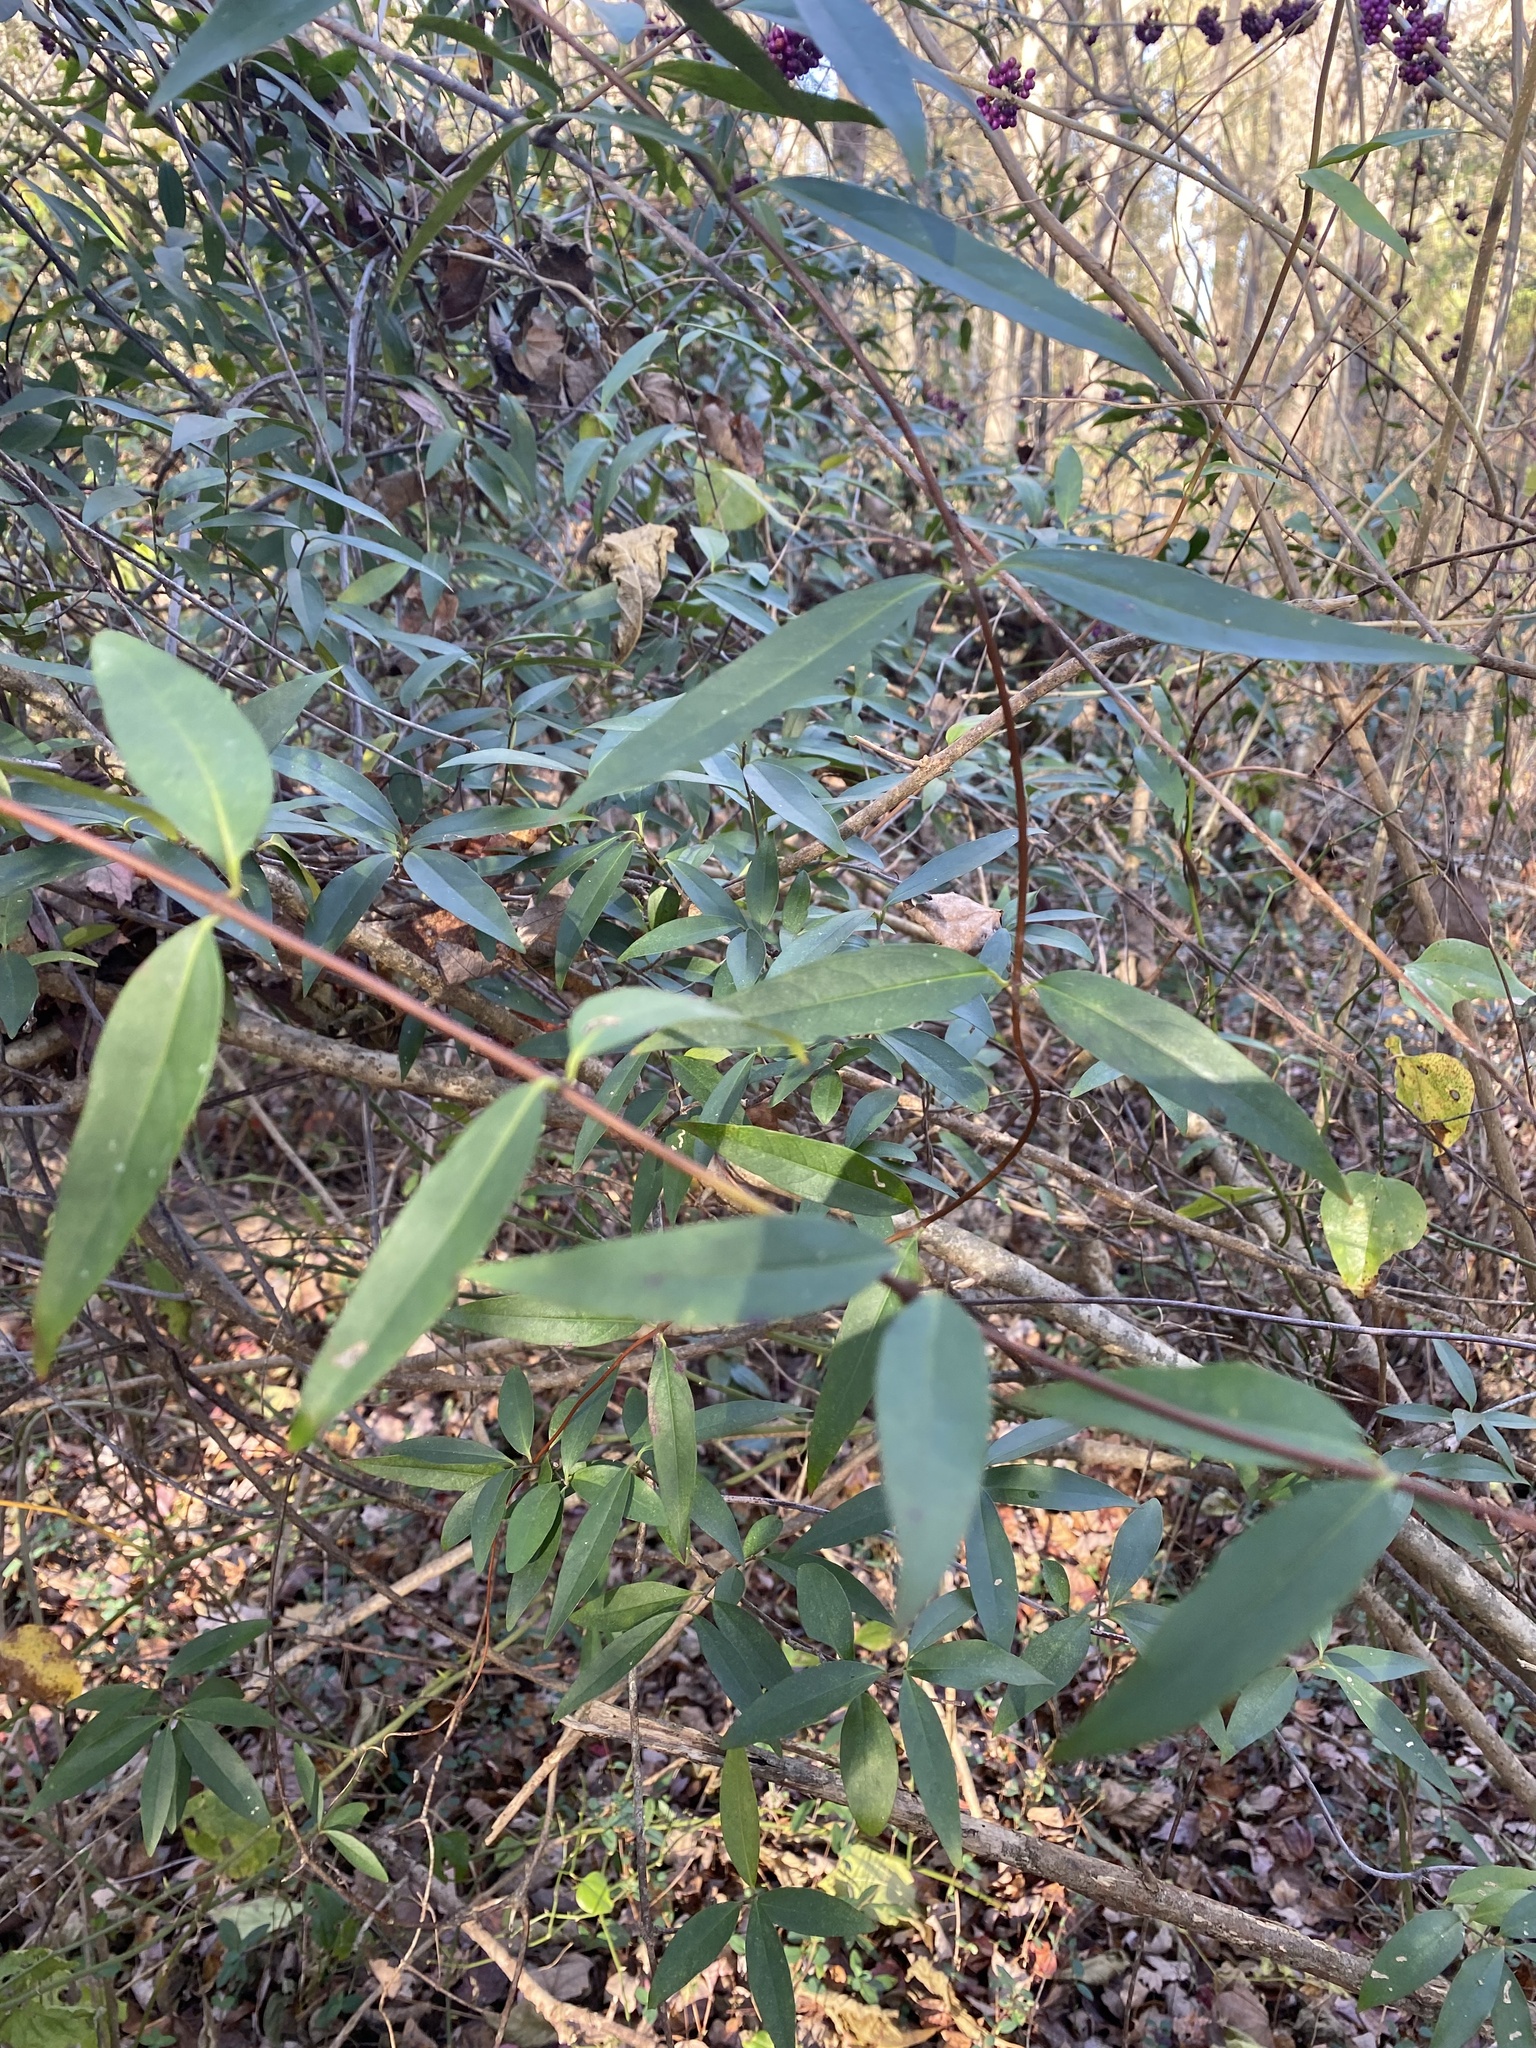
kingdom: Animalia
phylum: Arthropoda
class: Insecta
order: Diptera
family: Agromyzidae
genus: Liriomyza
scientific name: Liriomyza schmidti
